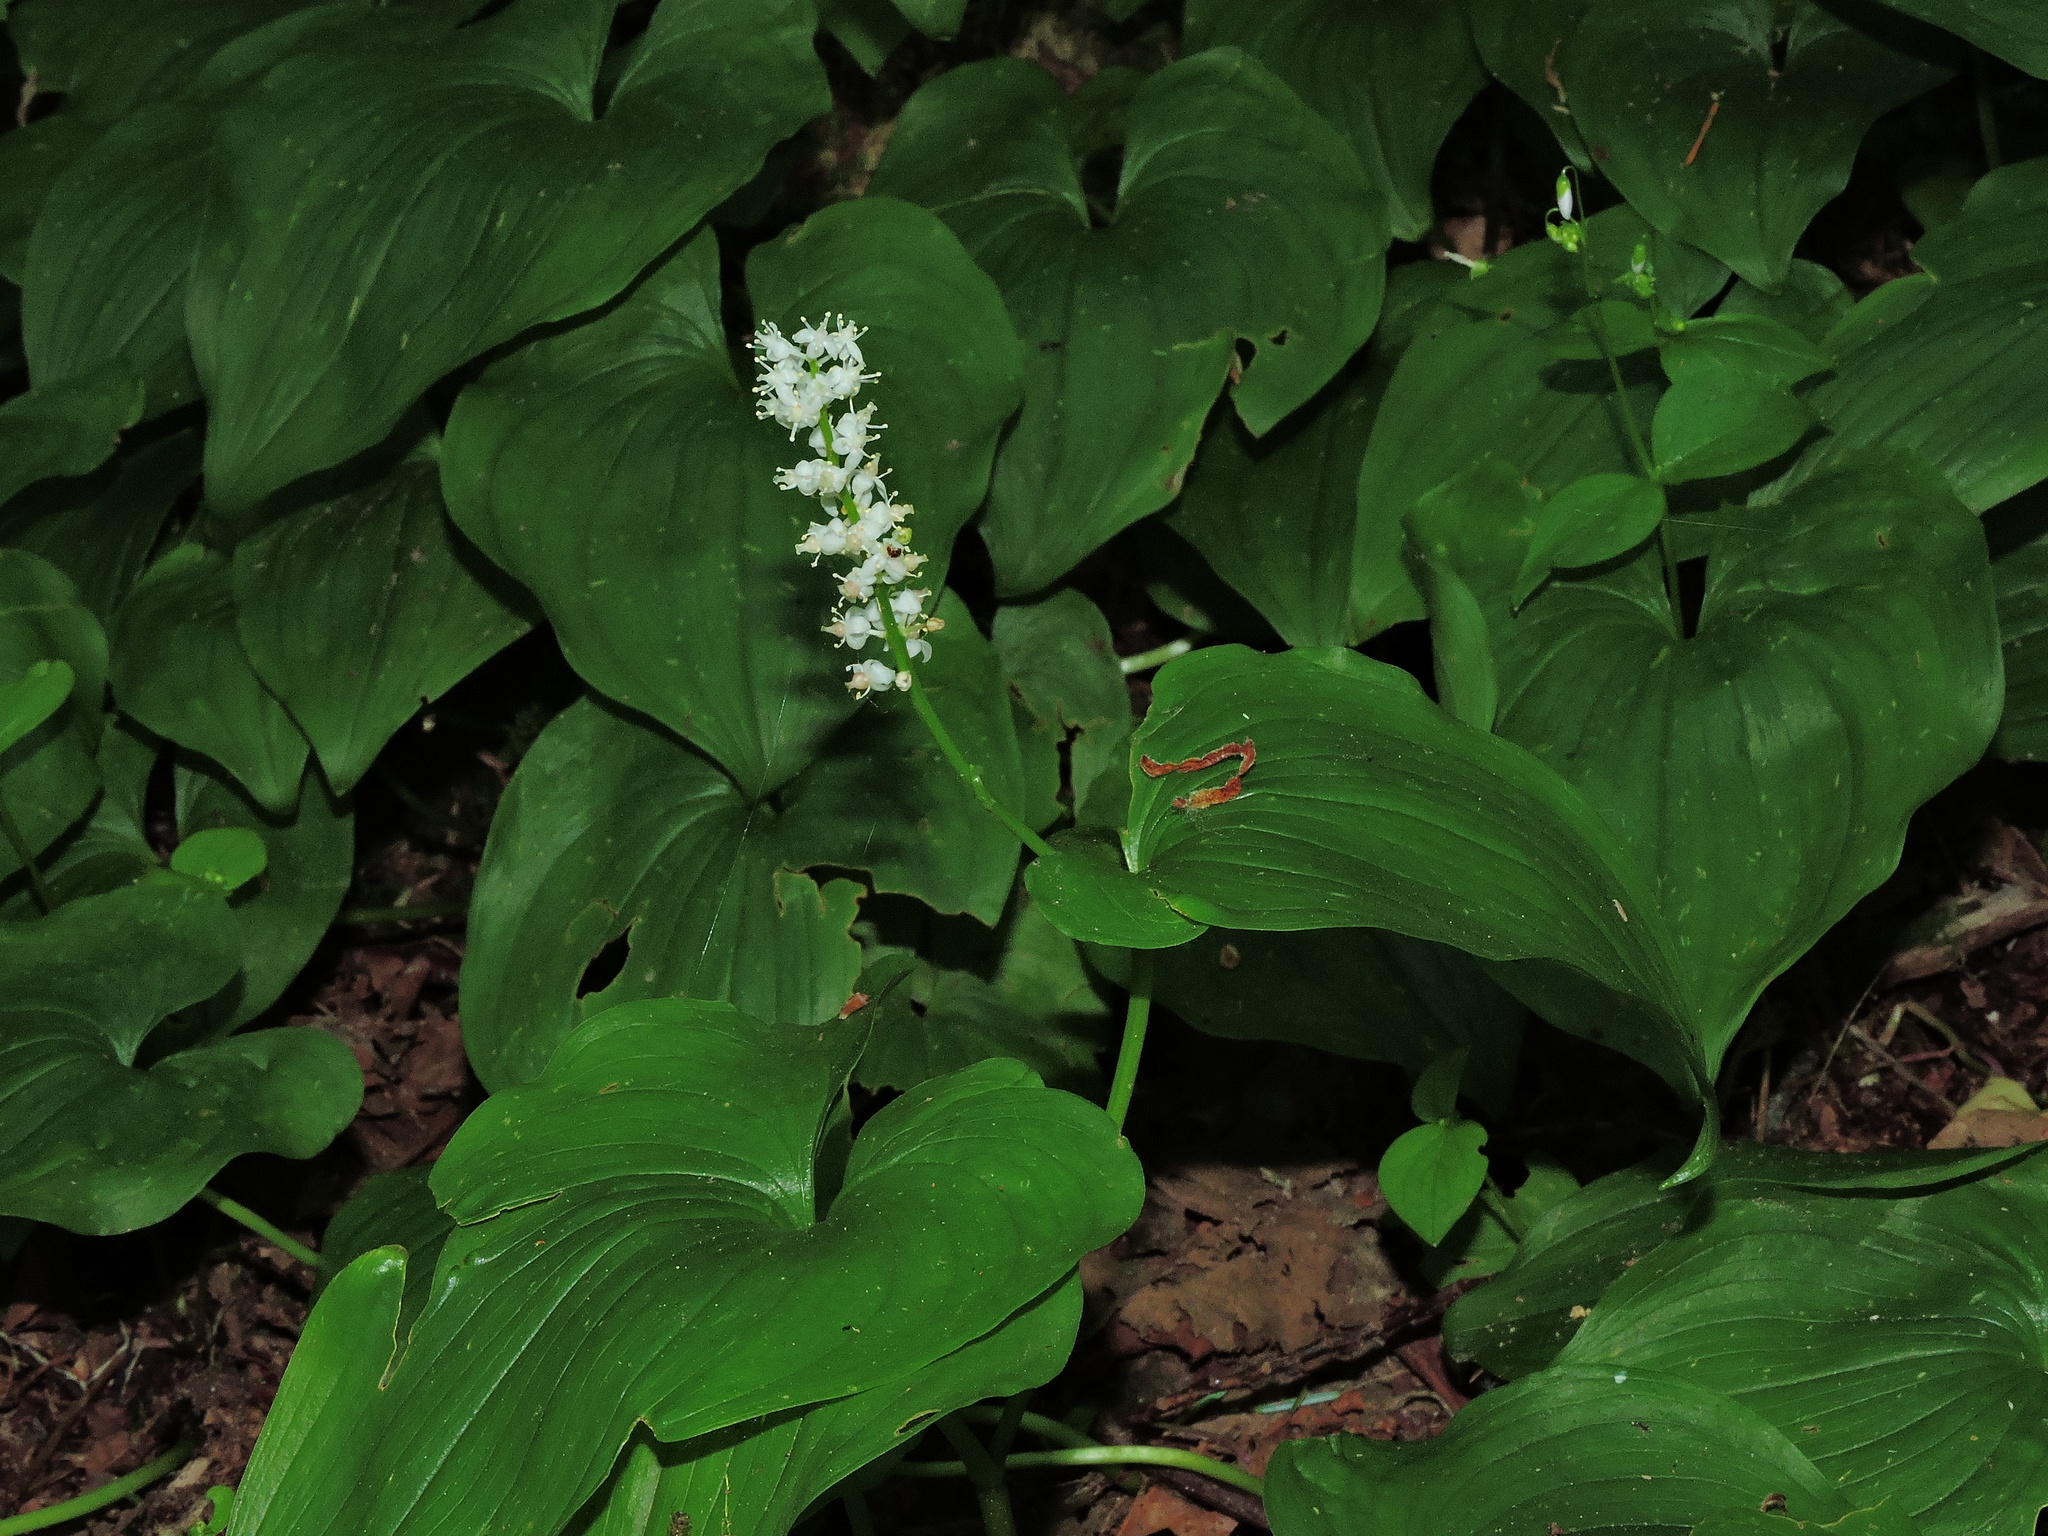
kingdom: Plantae
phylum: Tracheophyta
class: Liliopsida
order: Asparagales
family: Asparagaceae
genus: Maianthemum
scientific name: Maianthemum dilatatum
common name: False lily-of-the-valley
